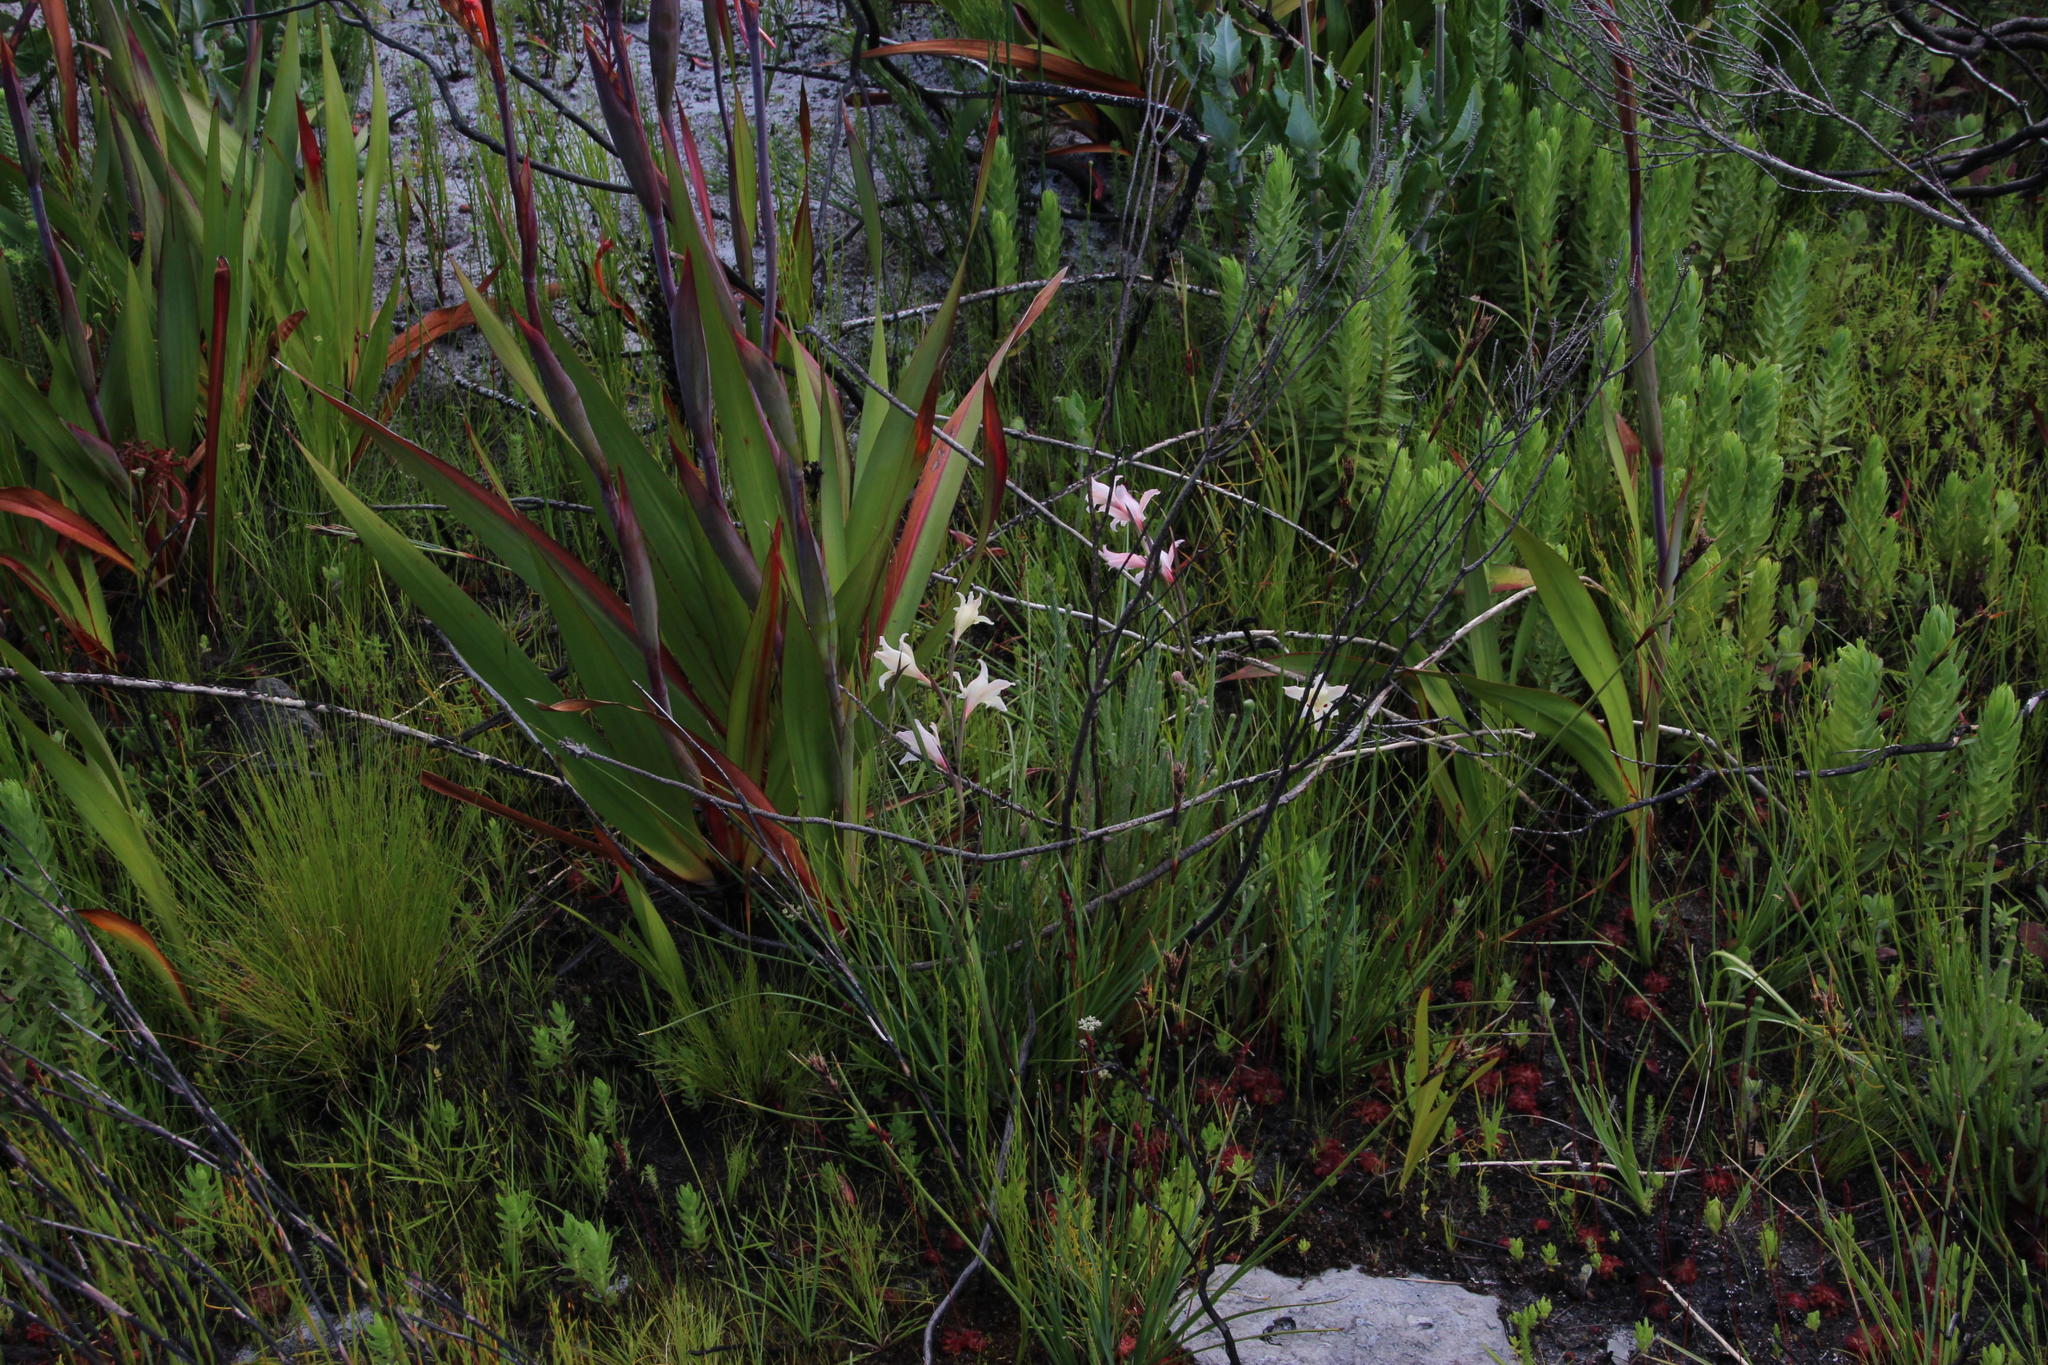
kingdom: Plantae
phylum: Tracheophyta
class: Liliopsida
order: Asparagales
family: Iridaceae
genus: Gladiolus
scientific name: Gladiolus carneus
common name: Painted-lady
